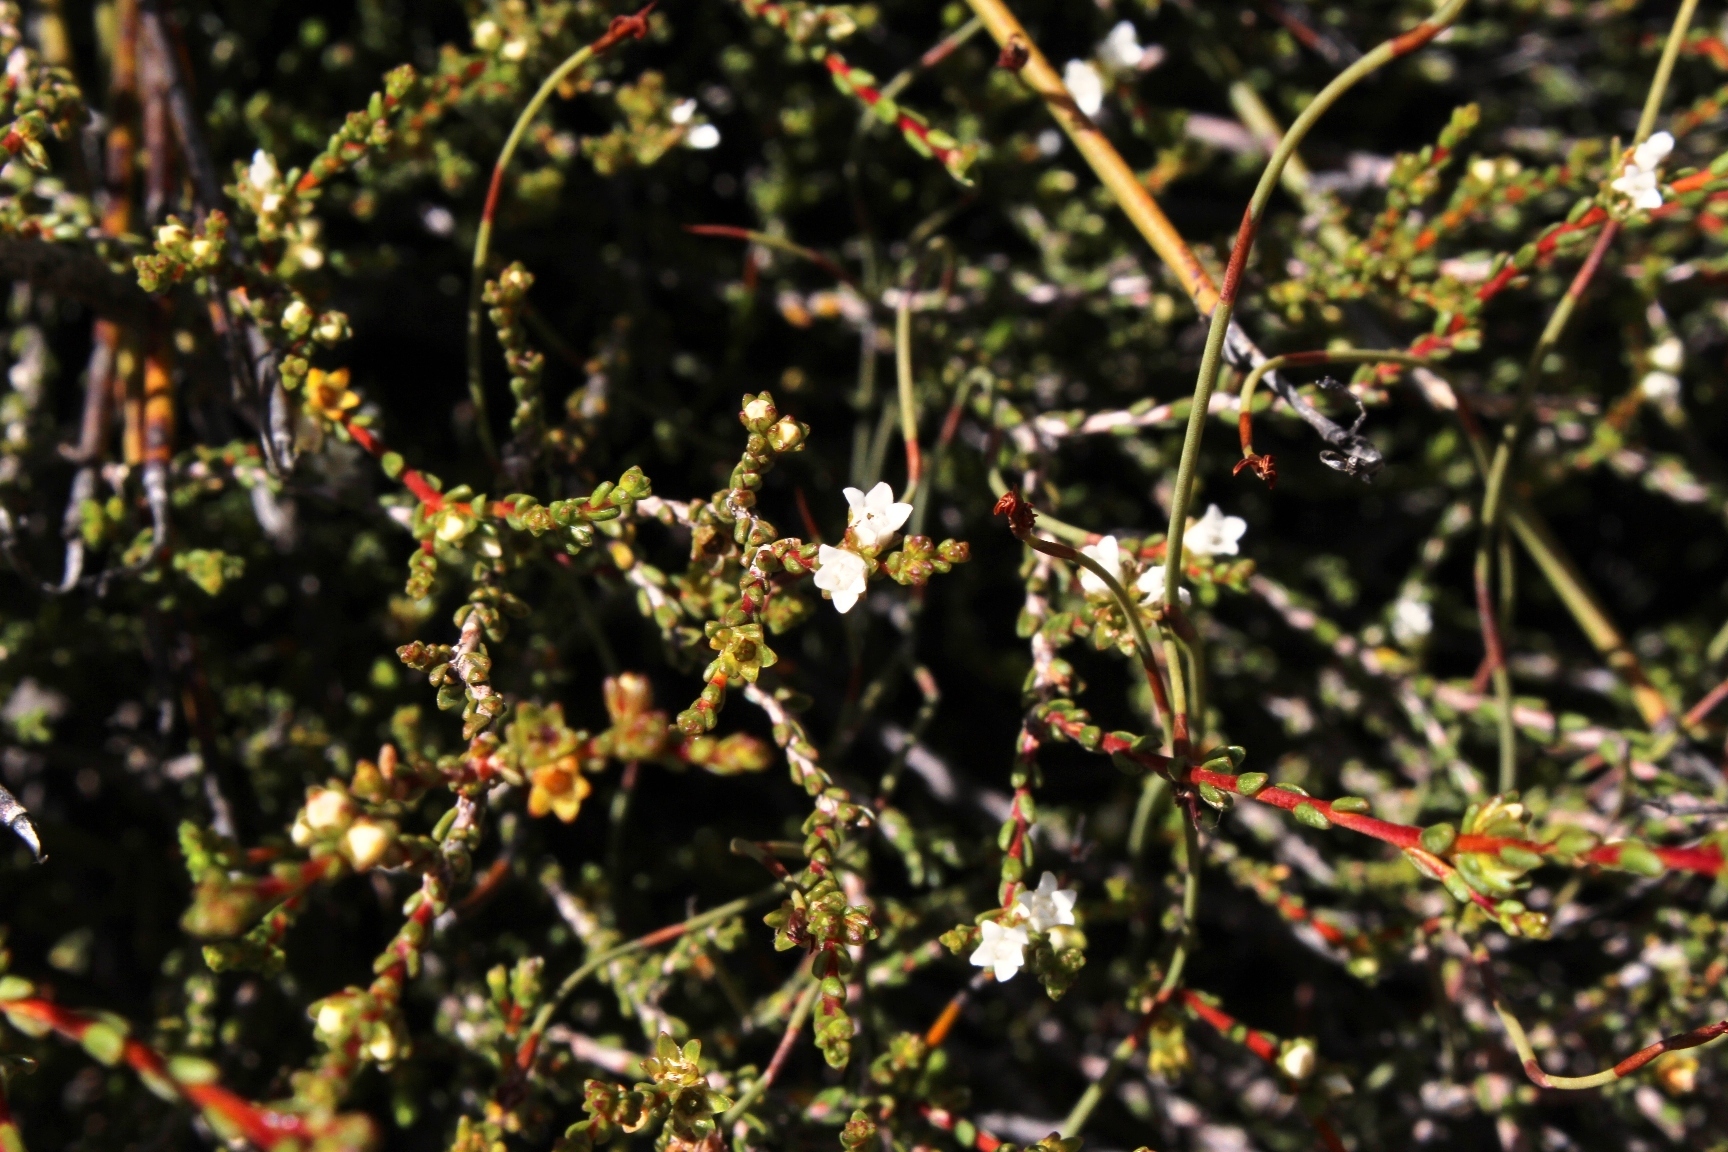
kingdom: Plantae
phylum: Tracheophyta
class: Magnoliopsida
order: Sapindales
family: Rutaceae
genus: Euchaetis
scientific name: Euchaetis elsieae
